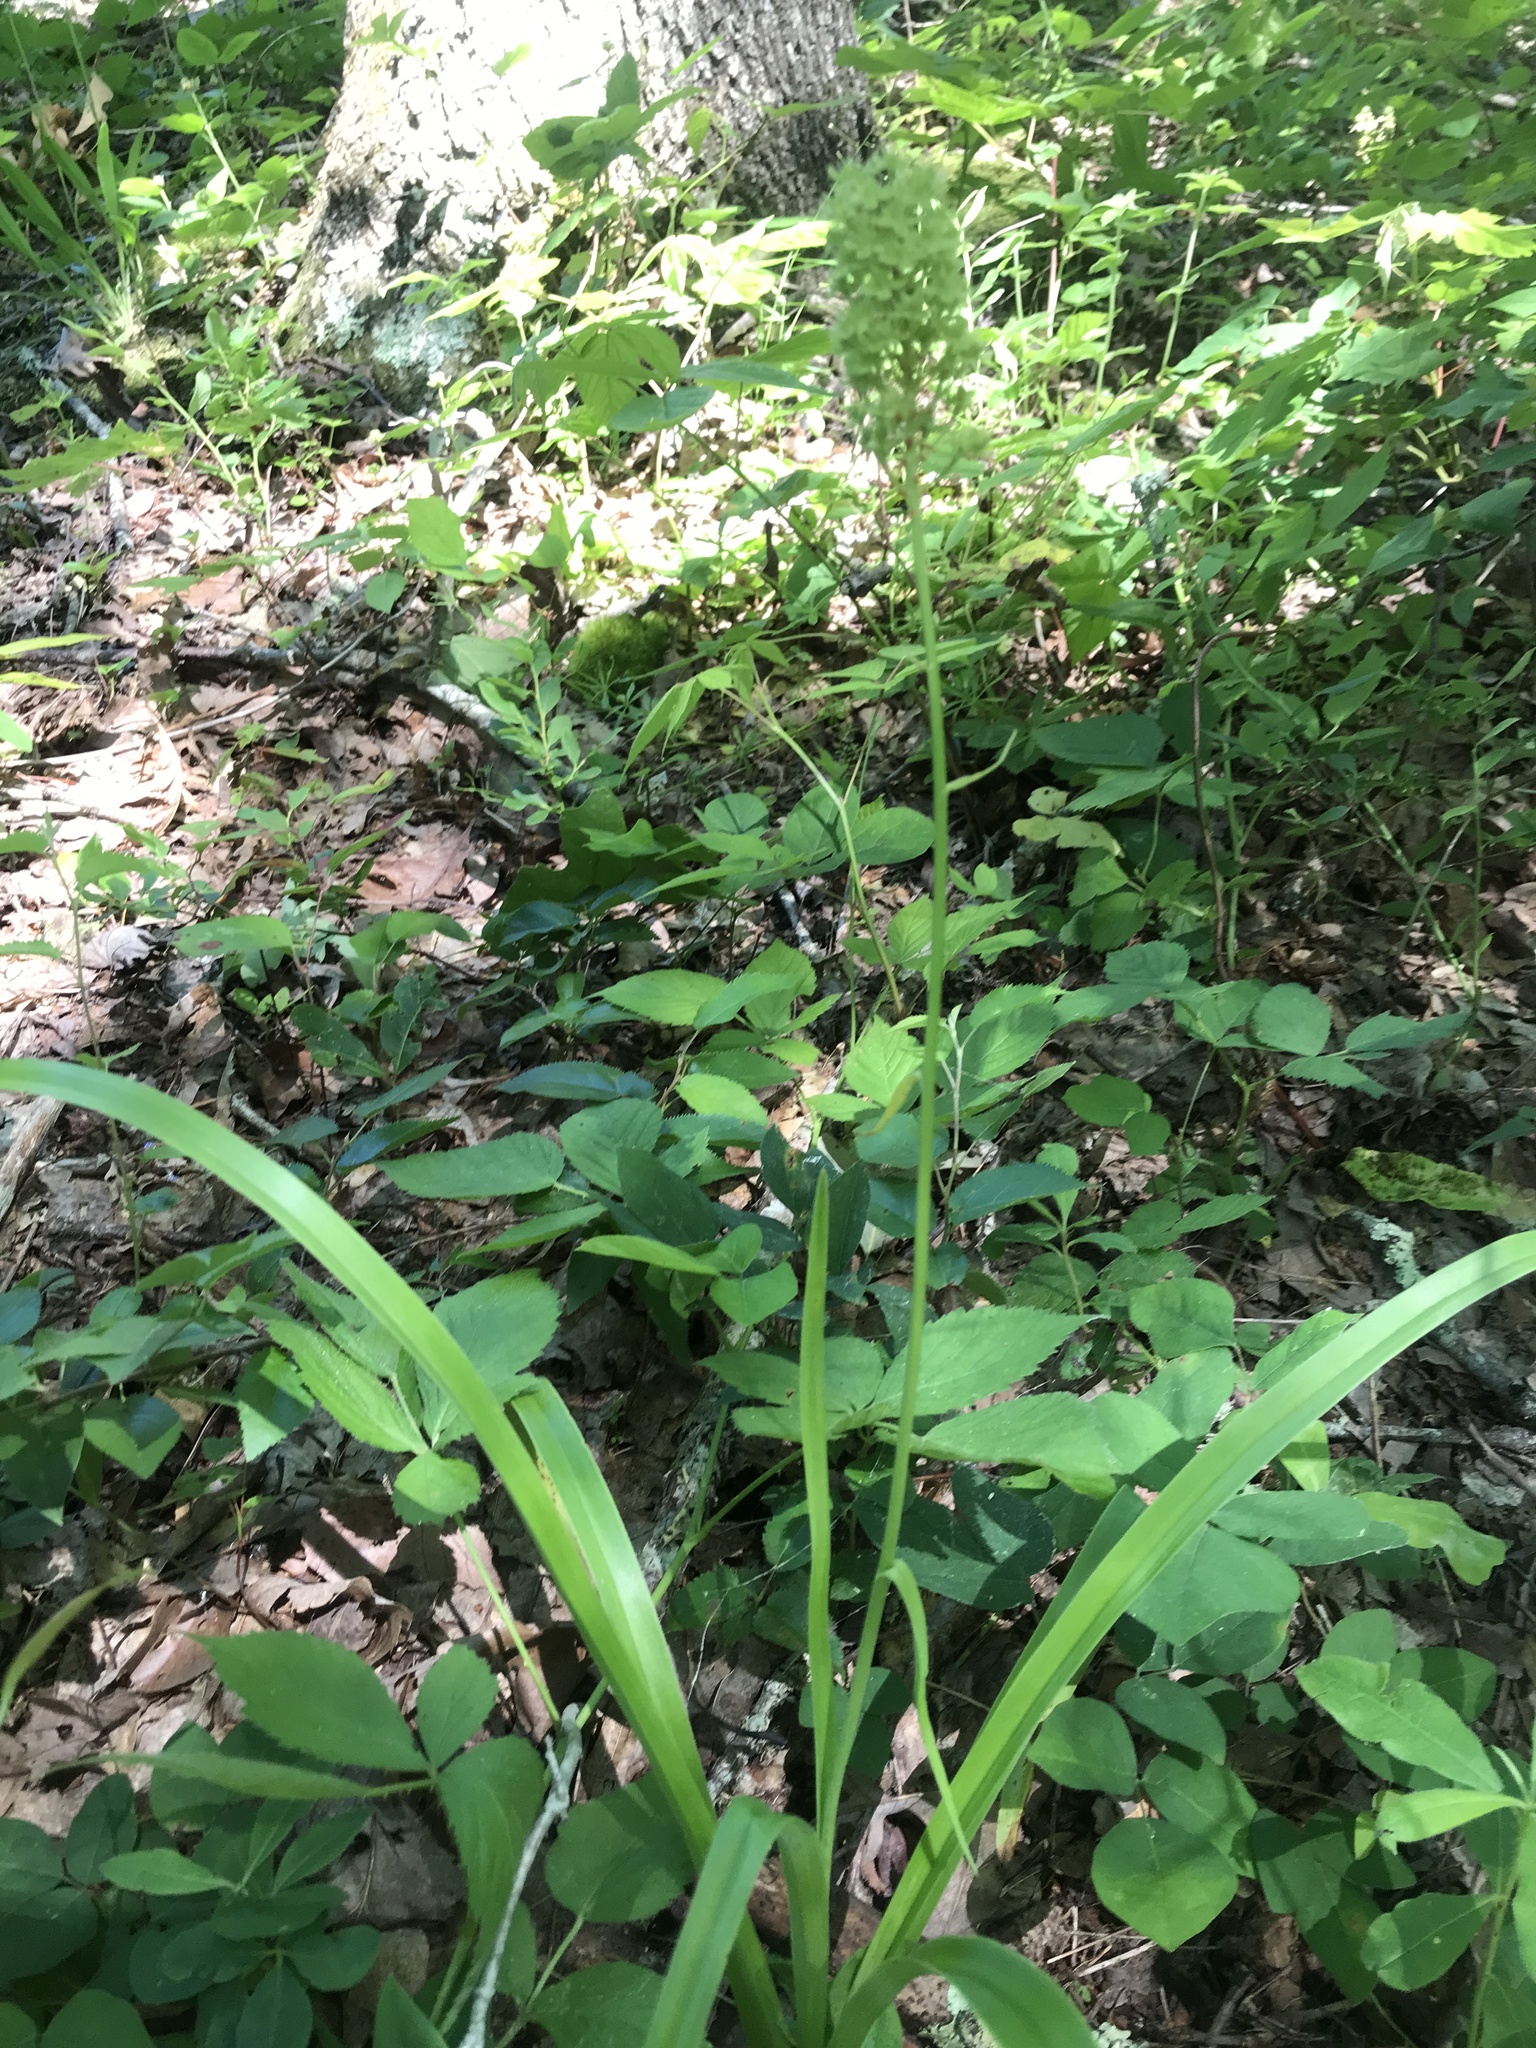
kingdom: Plantae
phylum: Tracheophyta
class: Liliopsida
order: Liliales
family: Melanthiaceae
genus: Amianthium
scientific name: Amianthium muscitoxicum
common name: Fly-poison
